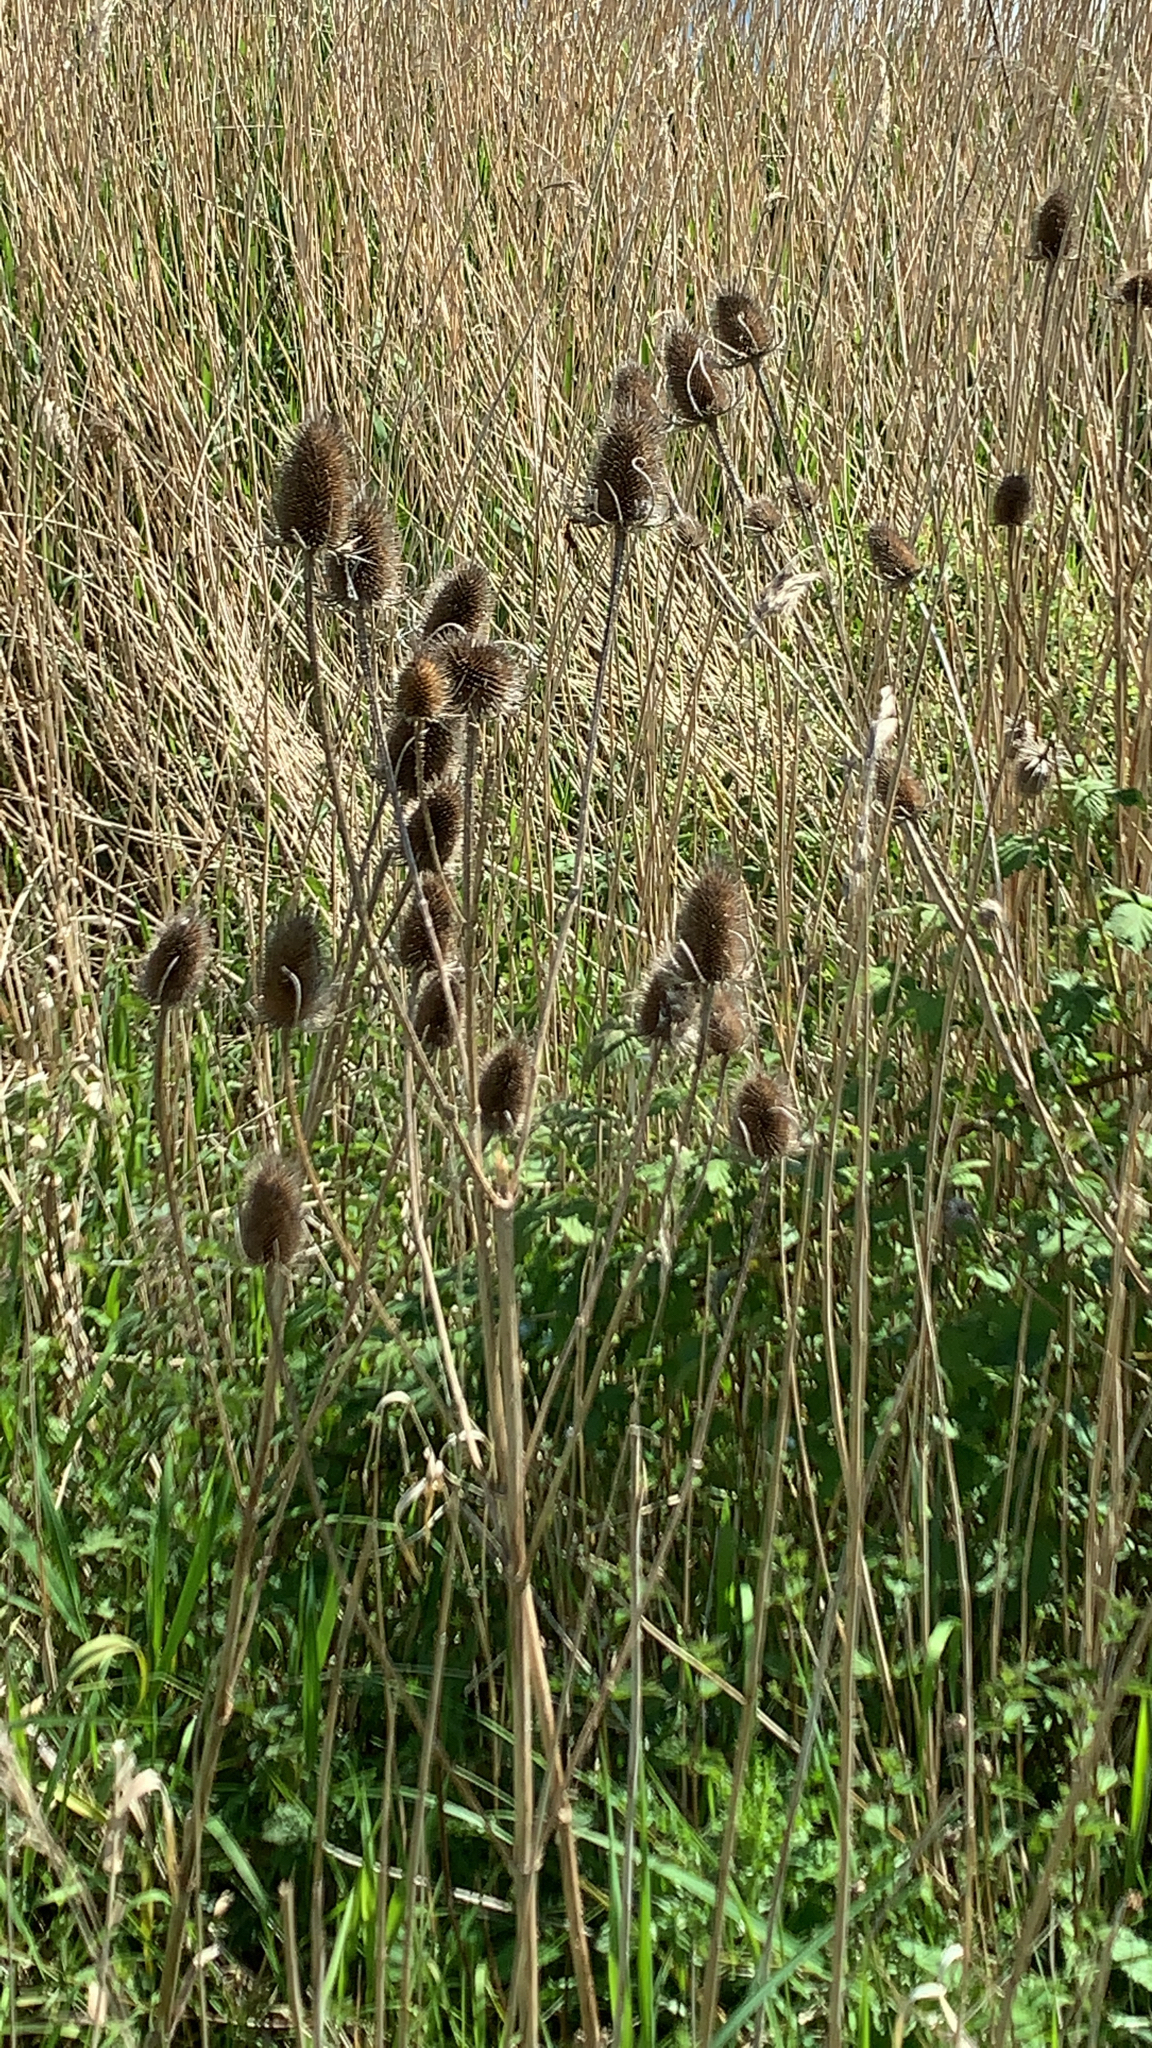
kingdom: Plantae
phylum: Tracheophyta
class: Magnoliopsida
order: Dipsacales
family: Caprifoliaceae
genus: Dipsacus
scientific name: Dipsacus fullonum
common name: Teasel
